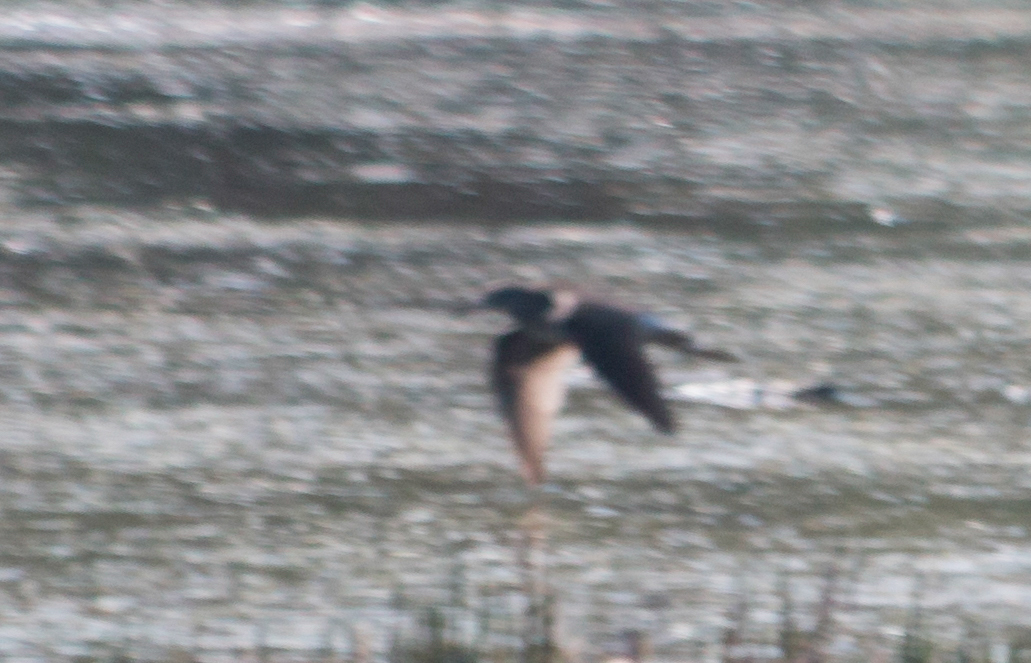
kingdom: Animalia
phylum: Chordata
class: Aves
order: Charadriiformes
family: Scolopacidae
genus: Tringa
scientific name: Tringa ochropus
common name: Green sandpiper
